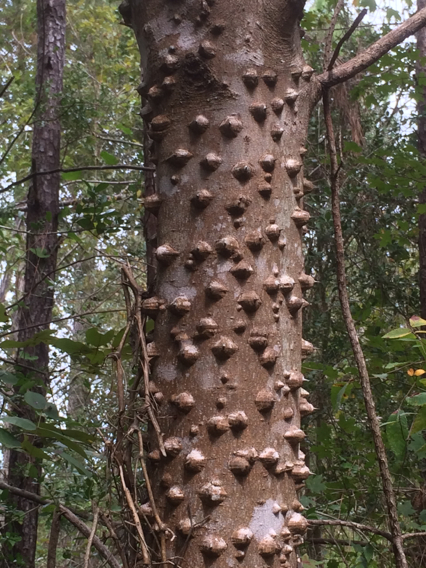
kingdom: Plantae
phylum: Tracheophyta
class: Magnoliopsida
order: Sapindales
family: Rutaceae
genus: Zanthoxylum
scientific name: Zanthoxylum clava-herculis
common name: Hercules'-club
